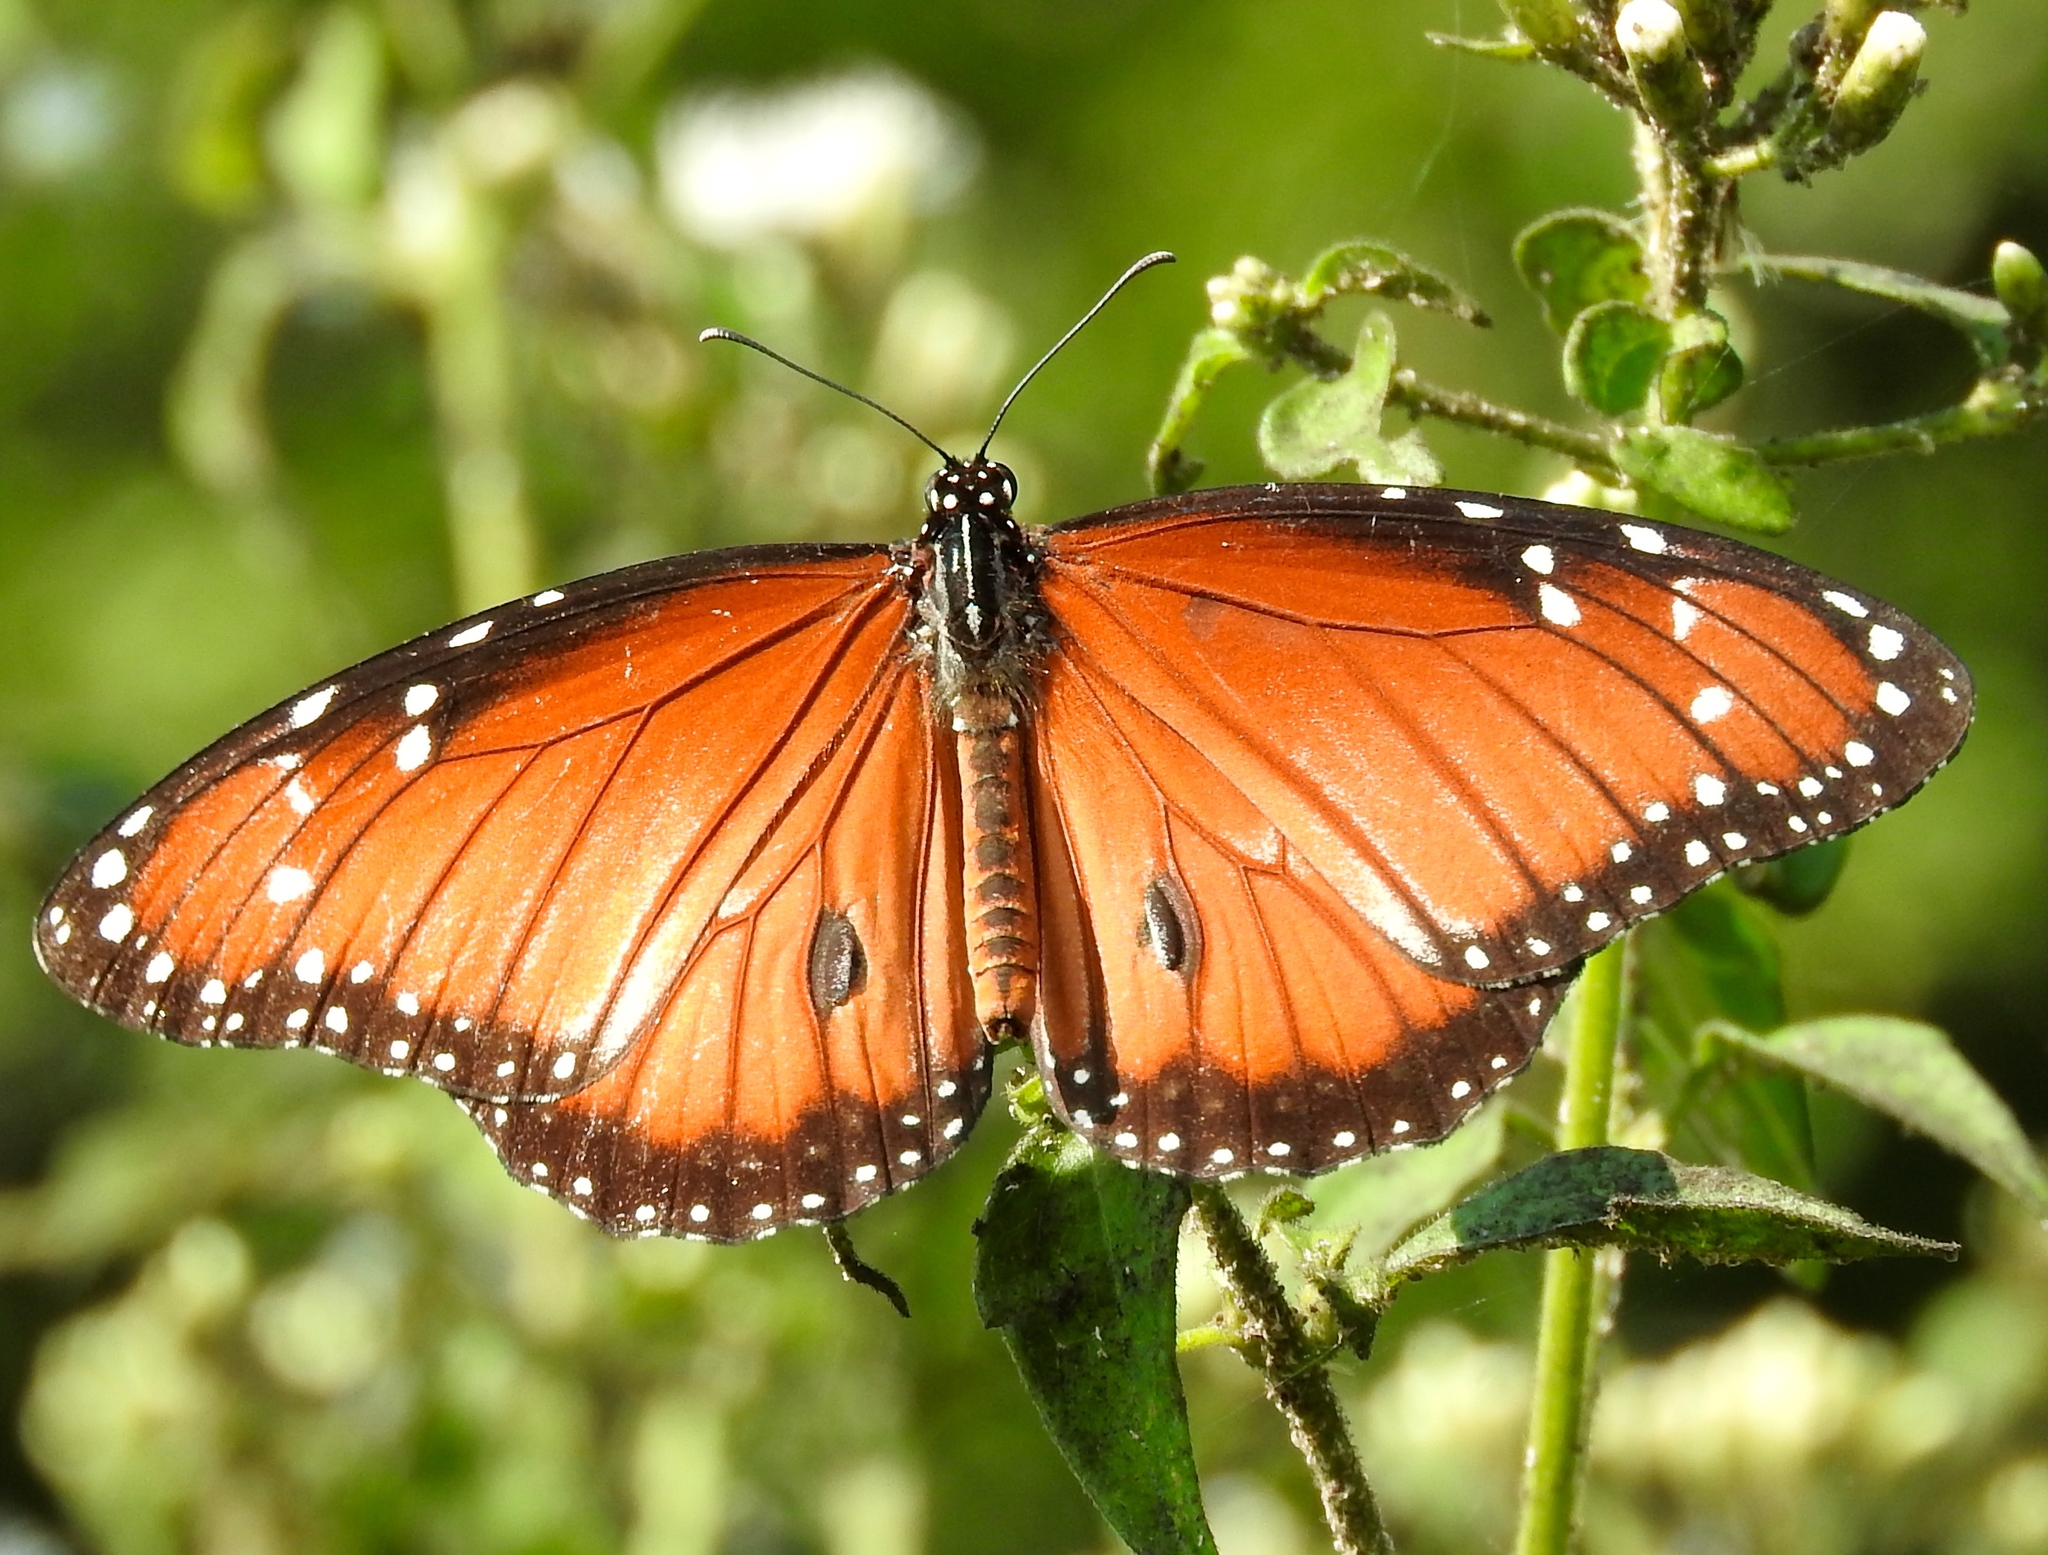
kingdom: Animalia
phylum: Arthropoda
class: Insecta
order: Lepidoptera
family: Nymphalidae
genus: Danaus
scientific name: Danaus eresimus
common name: Soldier
